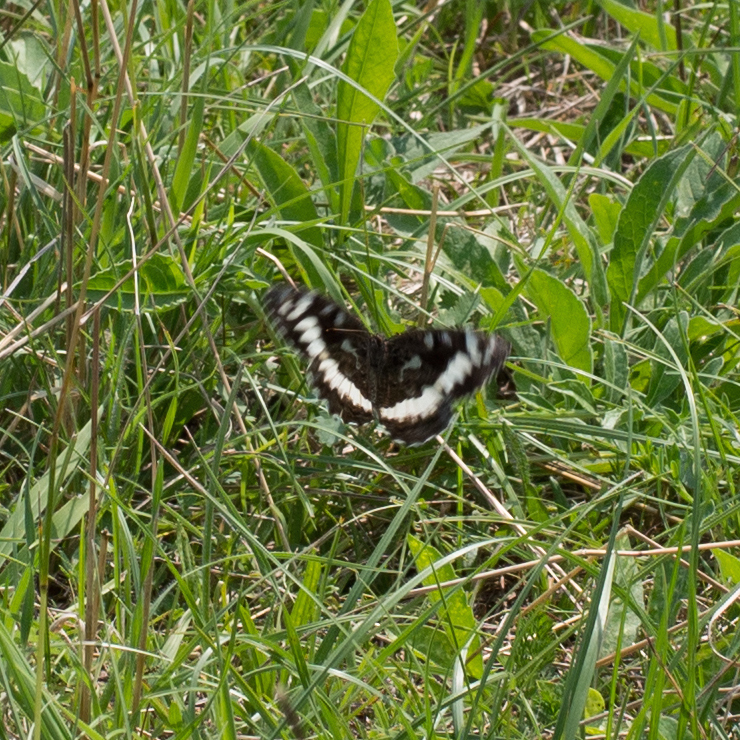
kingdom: Animalia
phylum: Arthropoda
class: Insecta
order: Lepidoptera
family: Lycaenidae
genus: Loweia
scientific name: Loweia tityrus
